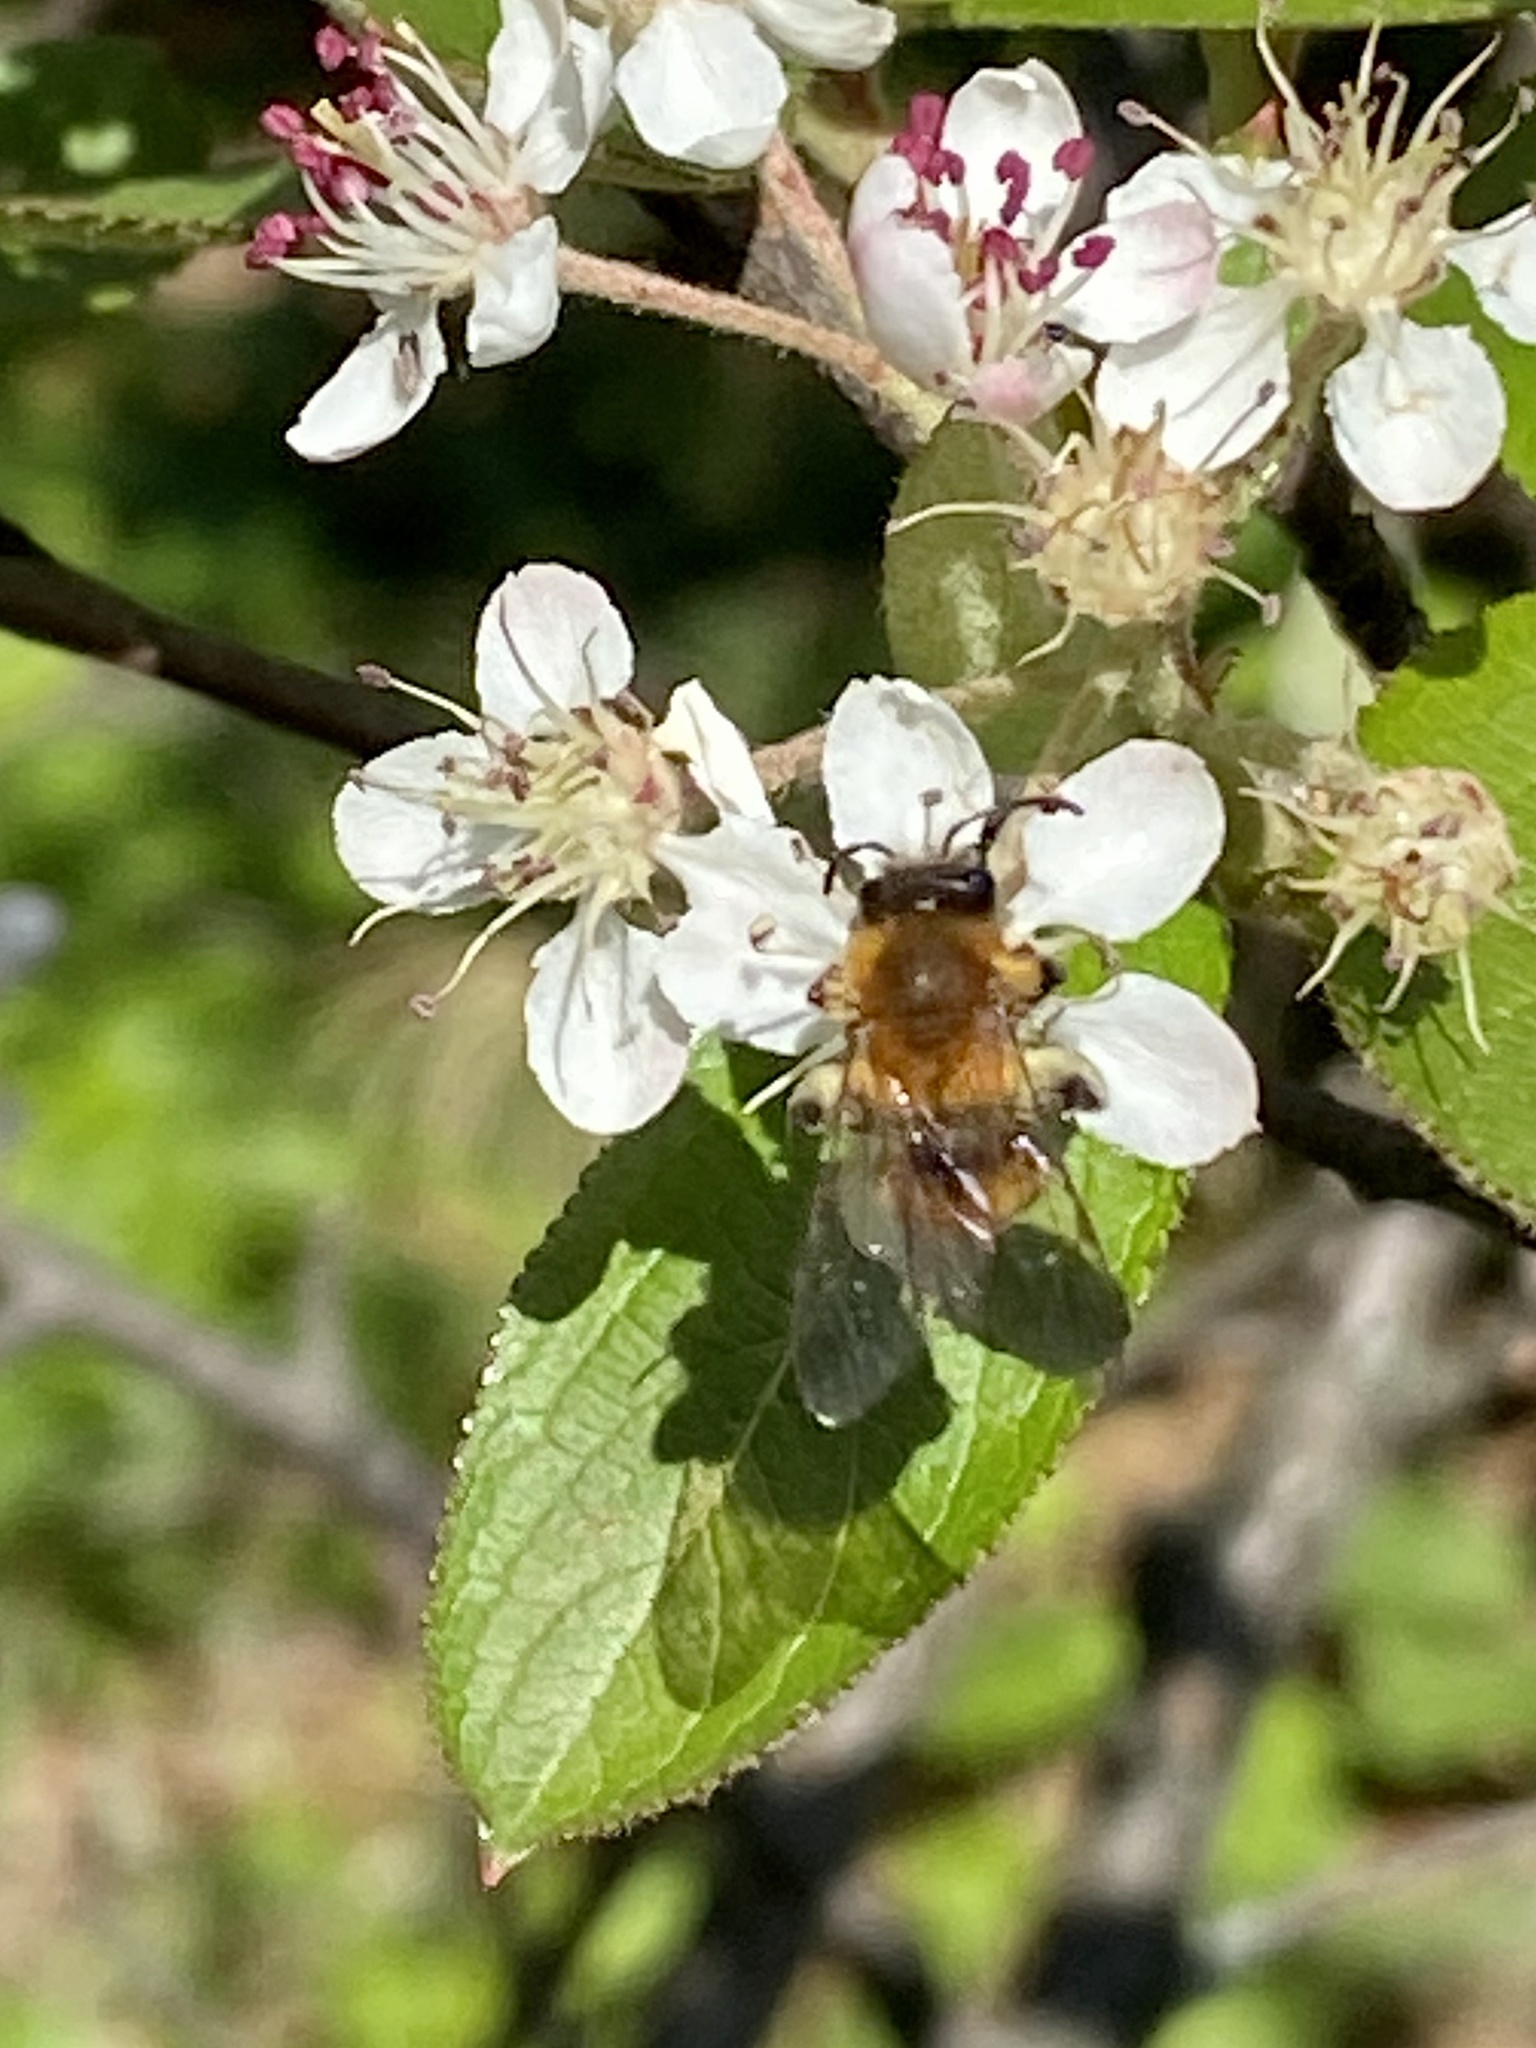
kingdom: Animalia
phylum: Arthropoda
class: Insecta
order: Hymenoptera
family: Andrenidae
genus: Andrena
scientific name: Andrena milwaukeensis
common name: Milwaukee mining bee
